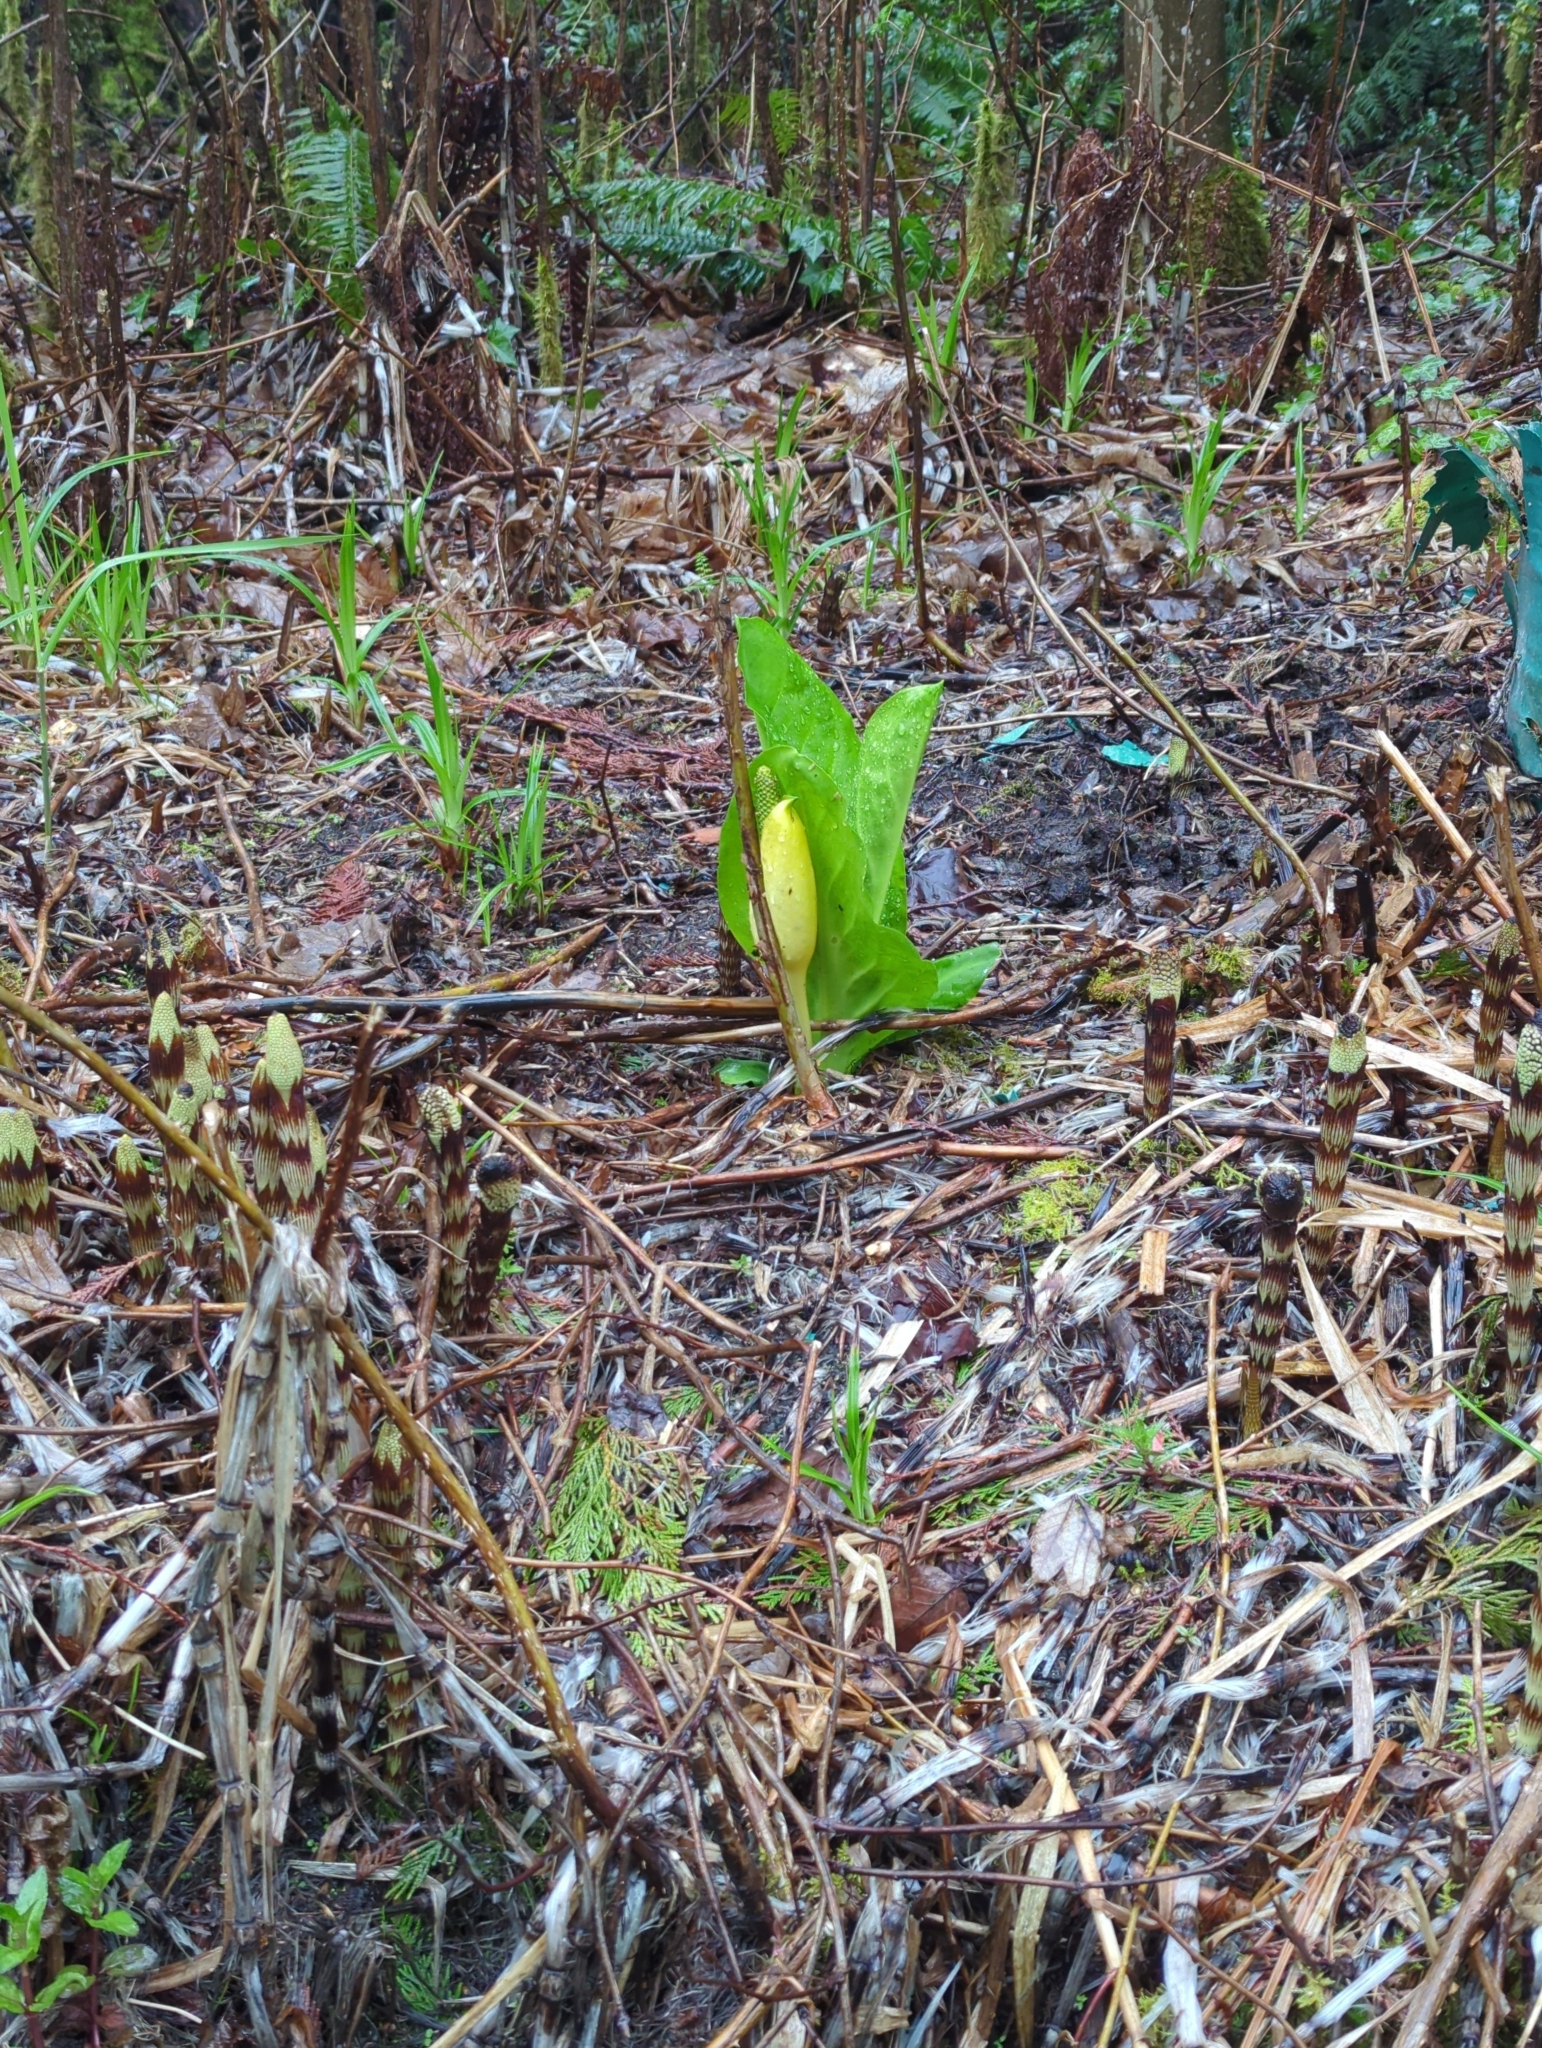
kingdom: Plantae
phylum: Tracheophyta
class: Liliopsida
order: Alismatales
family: Araceae
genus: Lysichiton
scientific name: Lysichiton americanus
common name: American skunk cabbage
